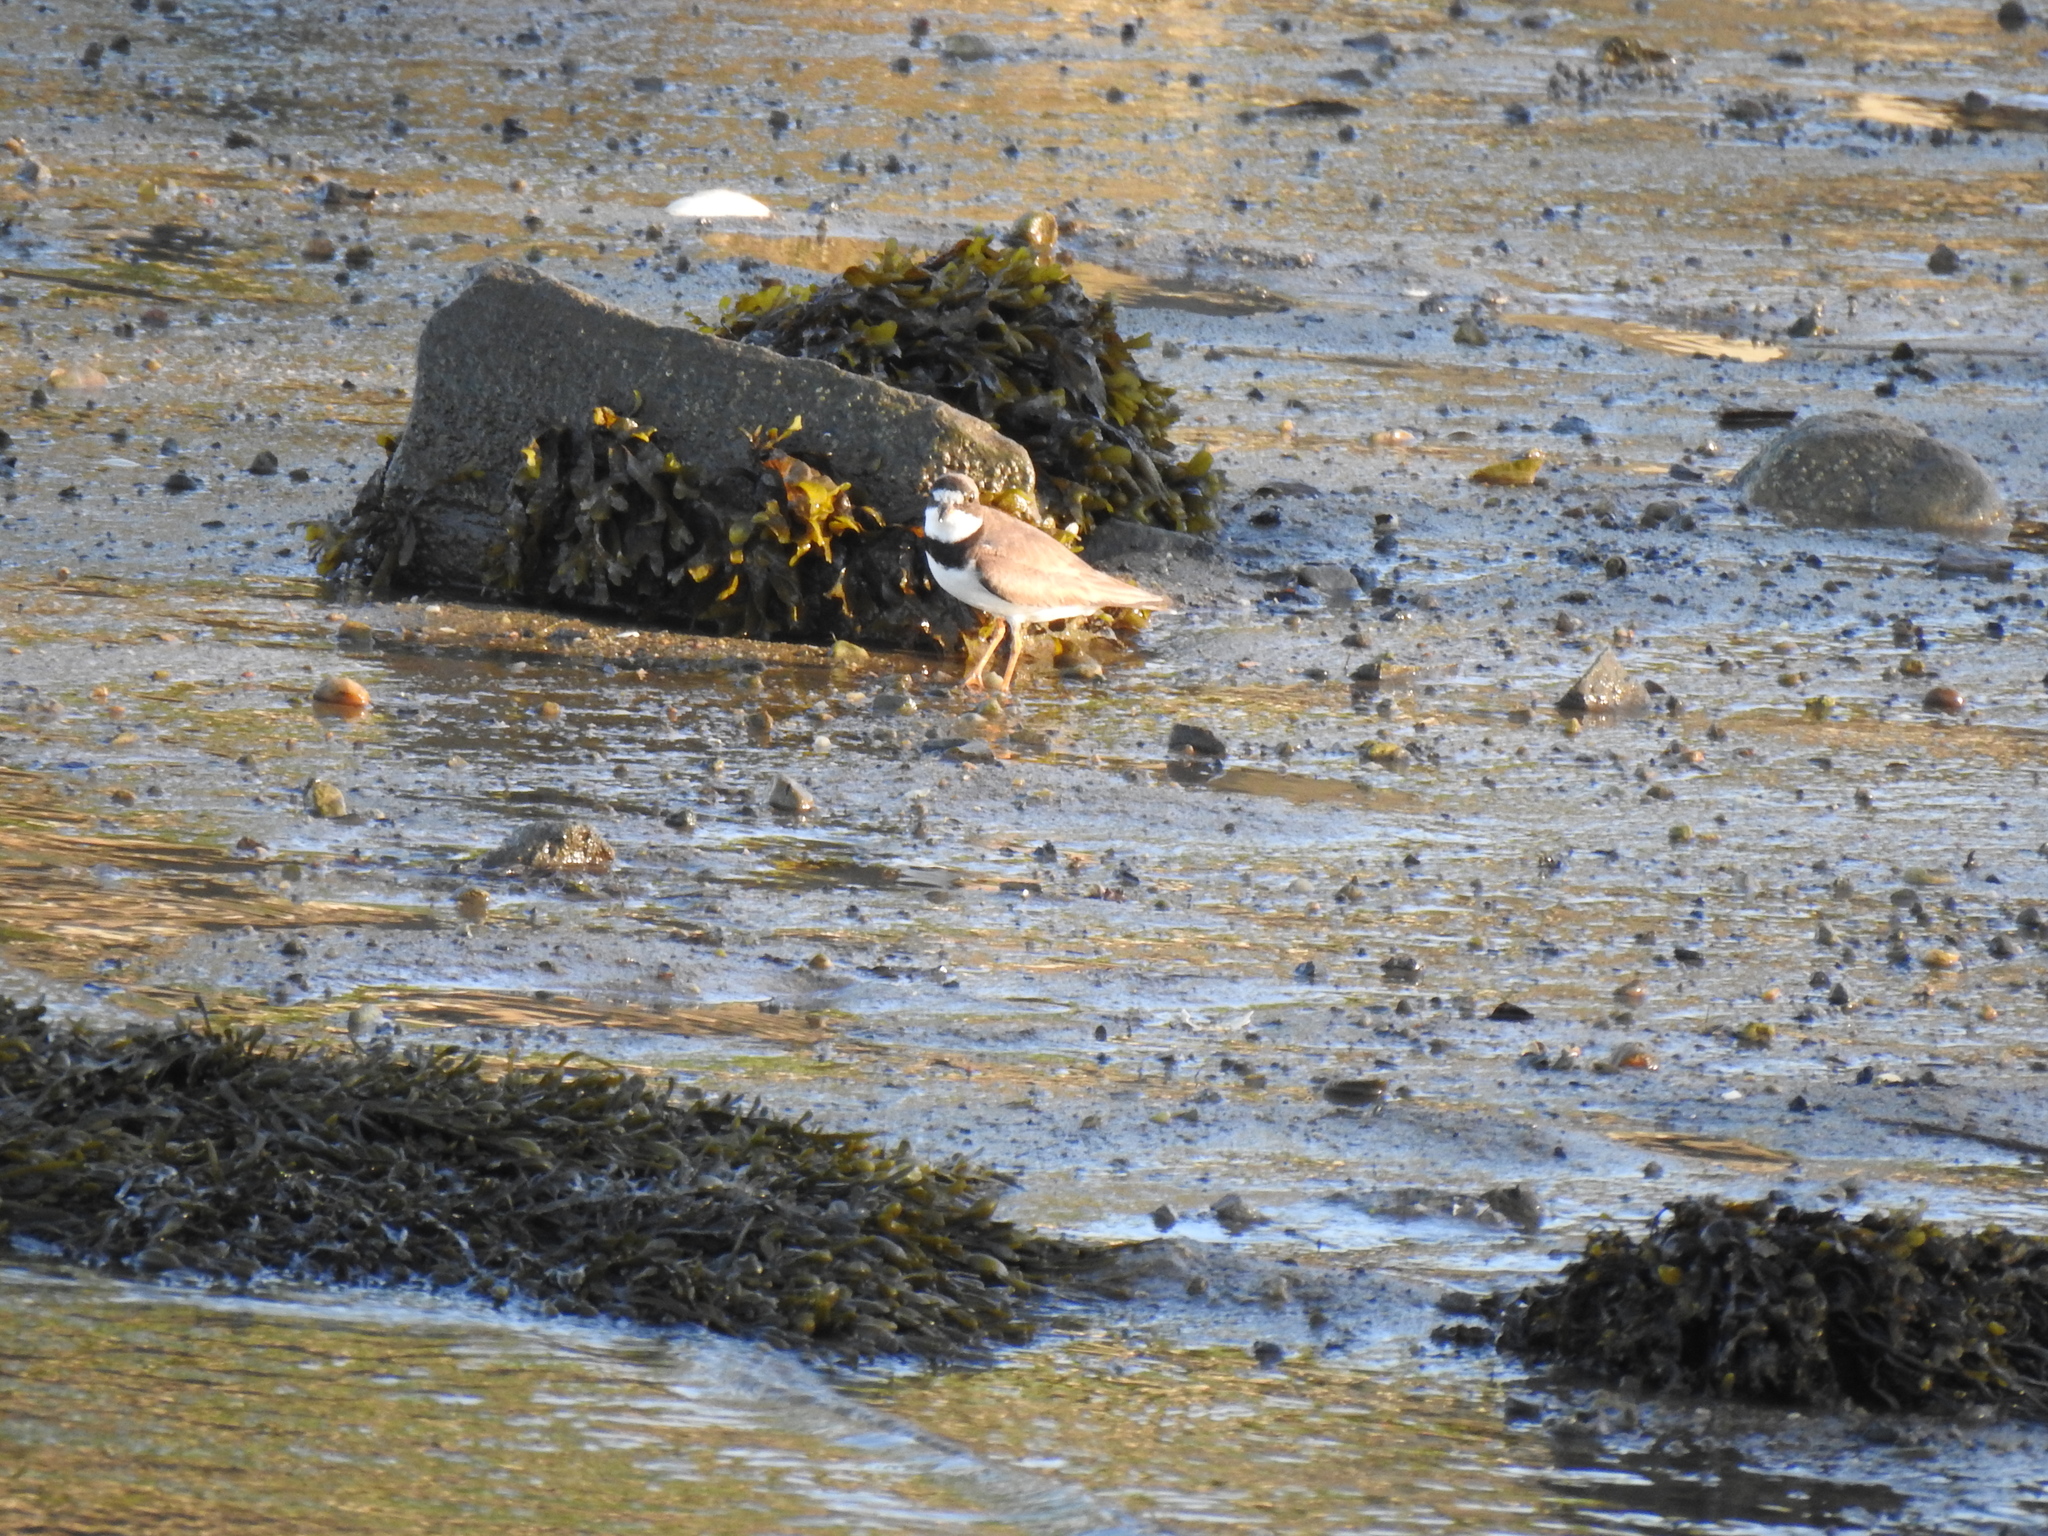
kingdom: Animalia
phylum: Chordata
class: Aves
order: Charadriiformes
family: Charadriidae
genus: Charadrius
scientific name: Charadrius semipalmatus
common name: Semipalmated plover
